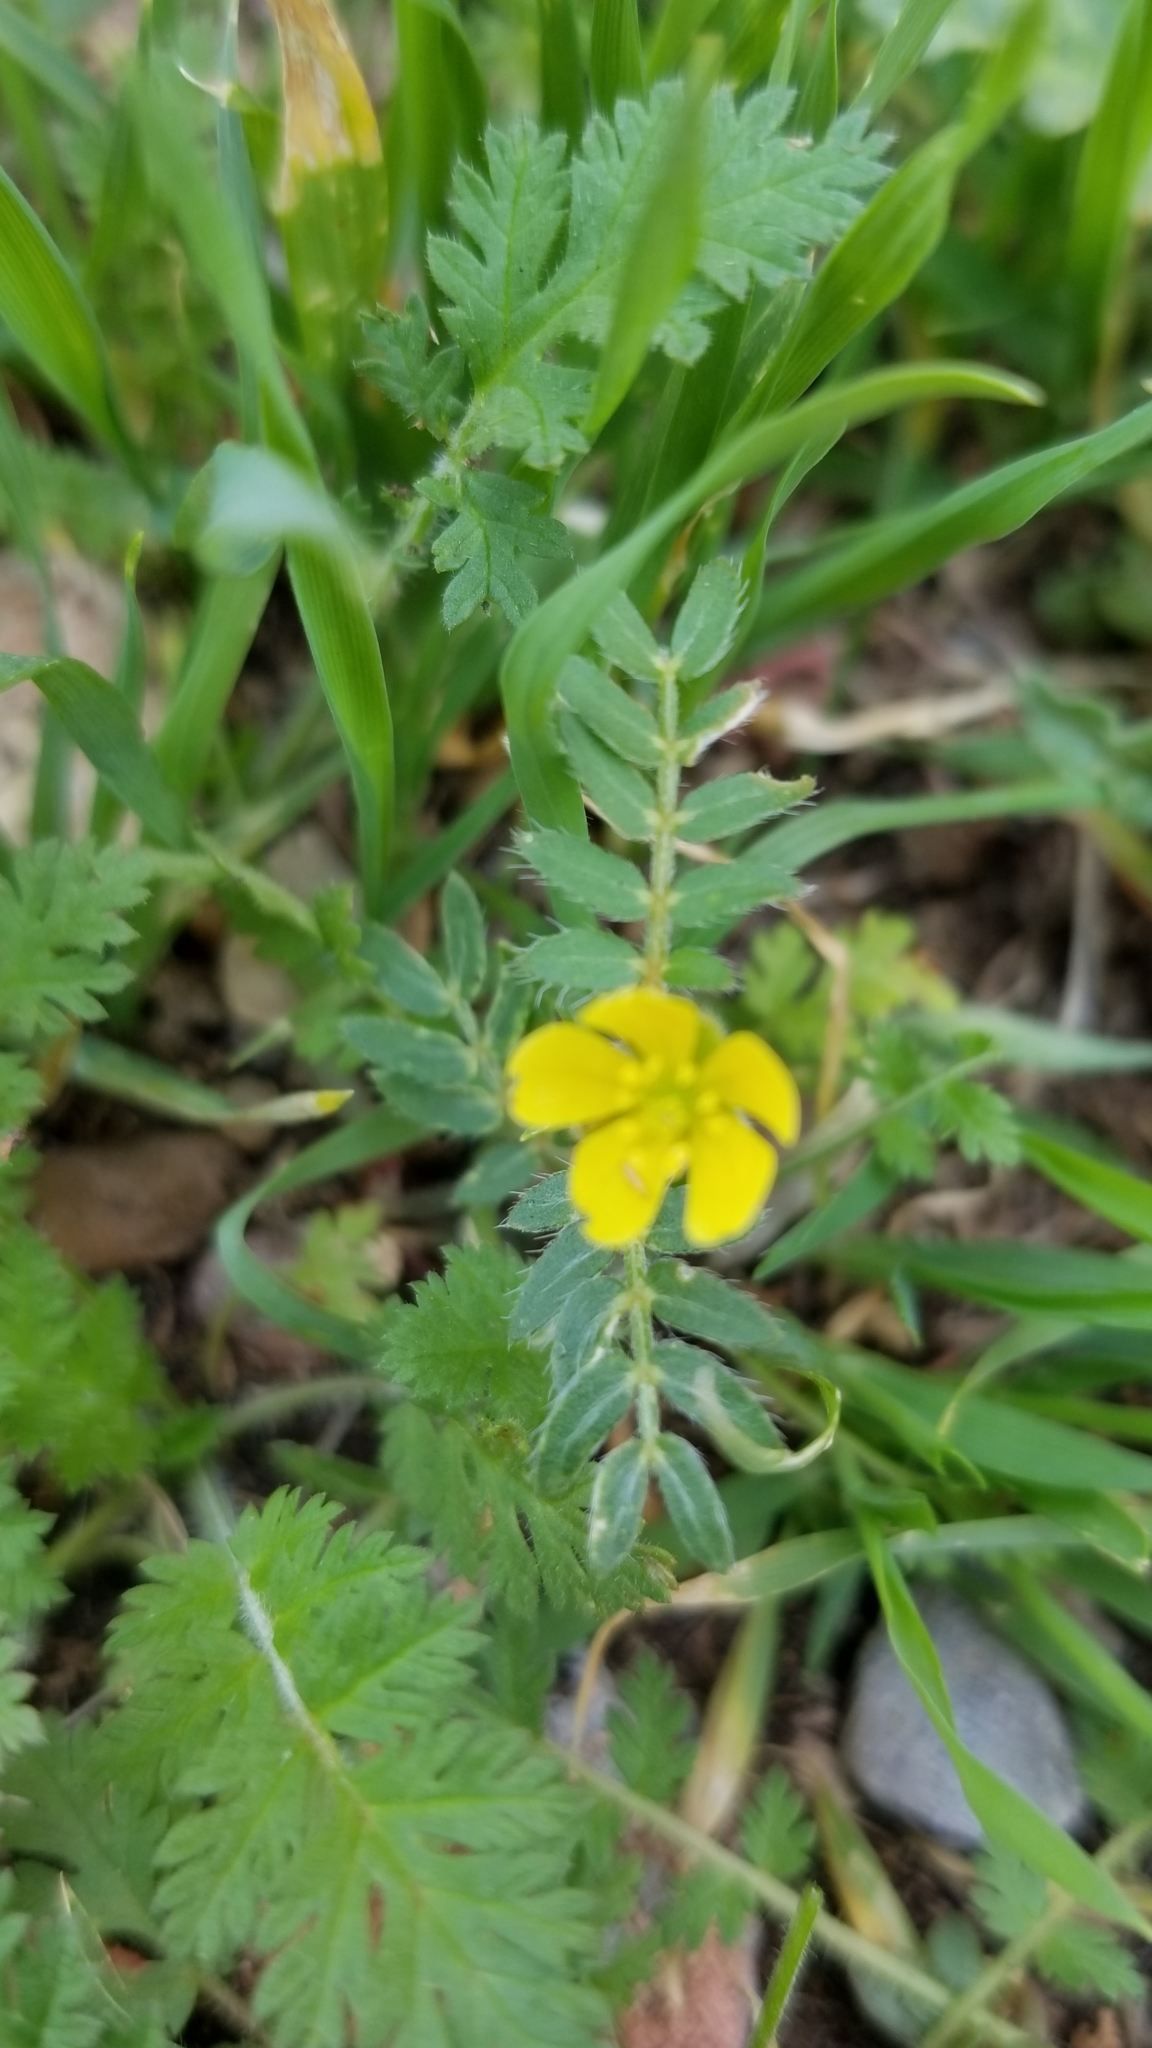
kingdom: Plantae
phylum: Tracheophyta
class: Magnoliopsida
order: Zygophyllales
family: Zygophyllaceae
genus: Tribulus
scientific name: Tribulus terrestris
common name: Puncturevine
